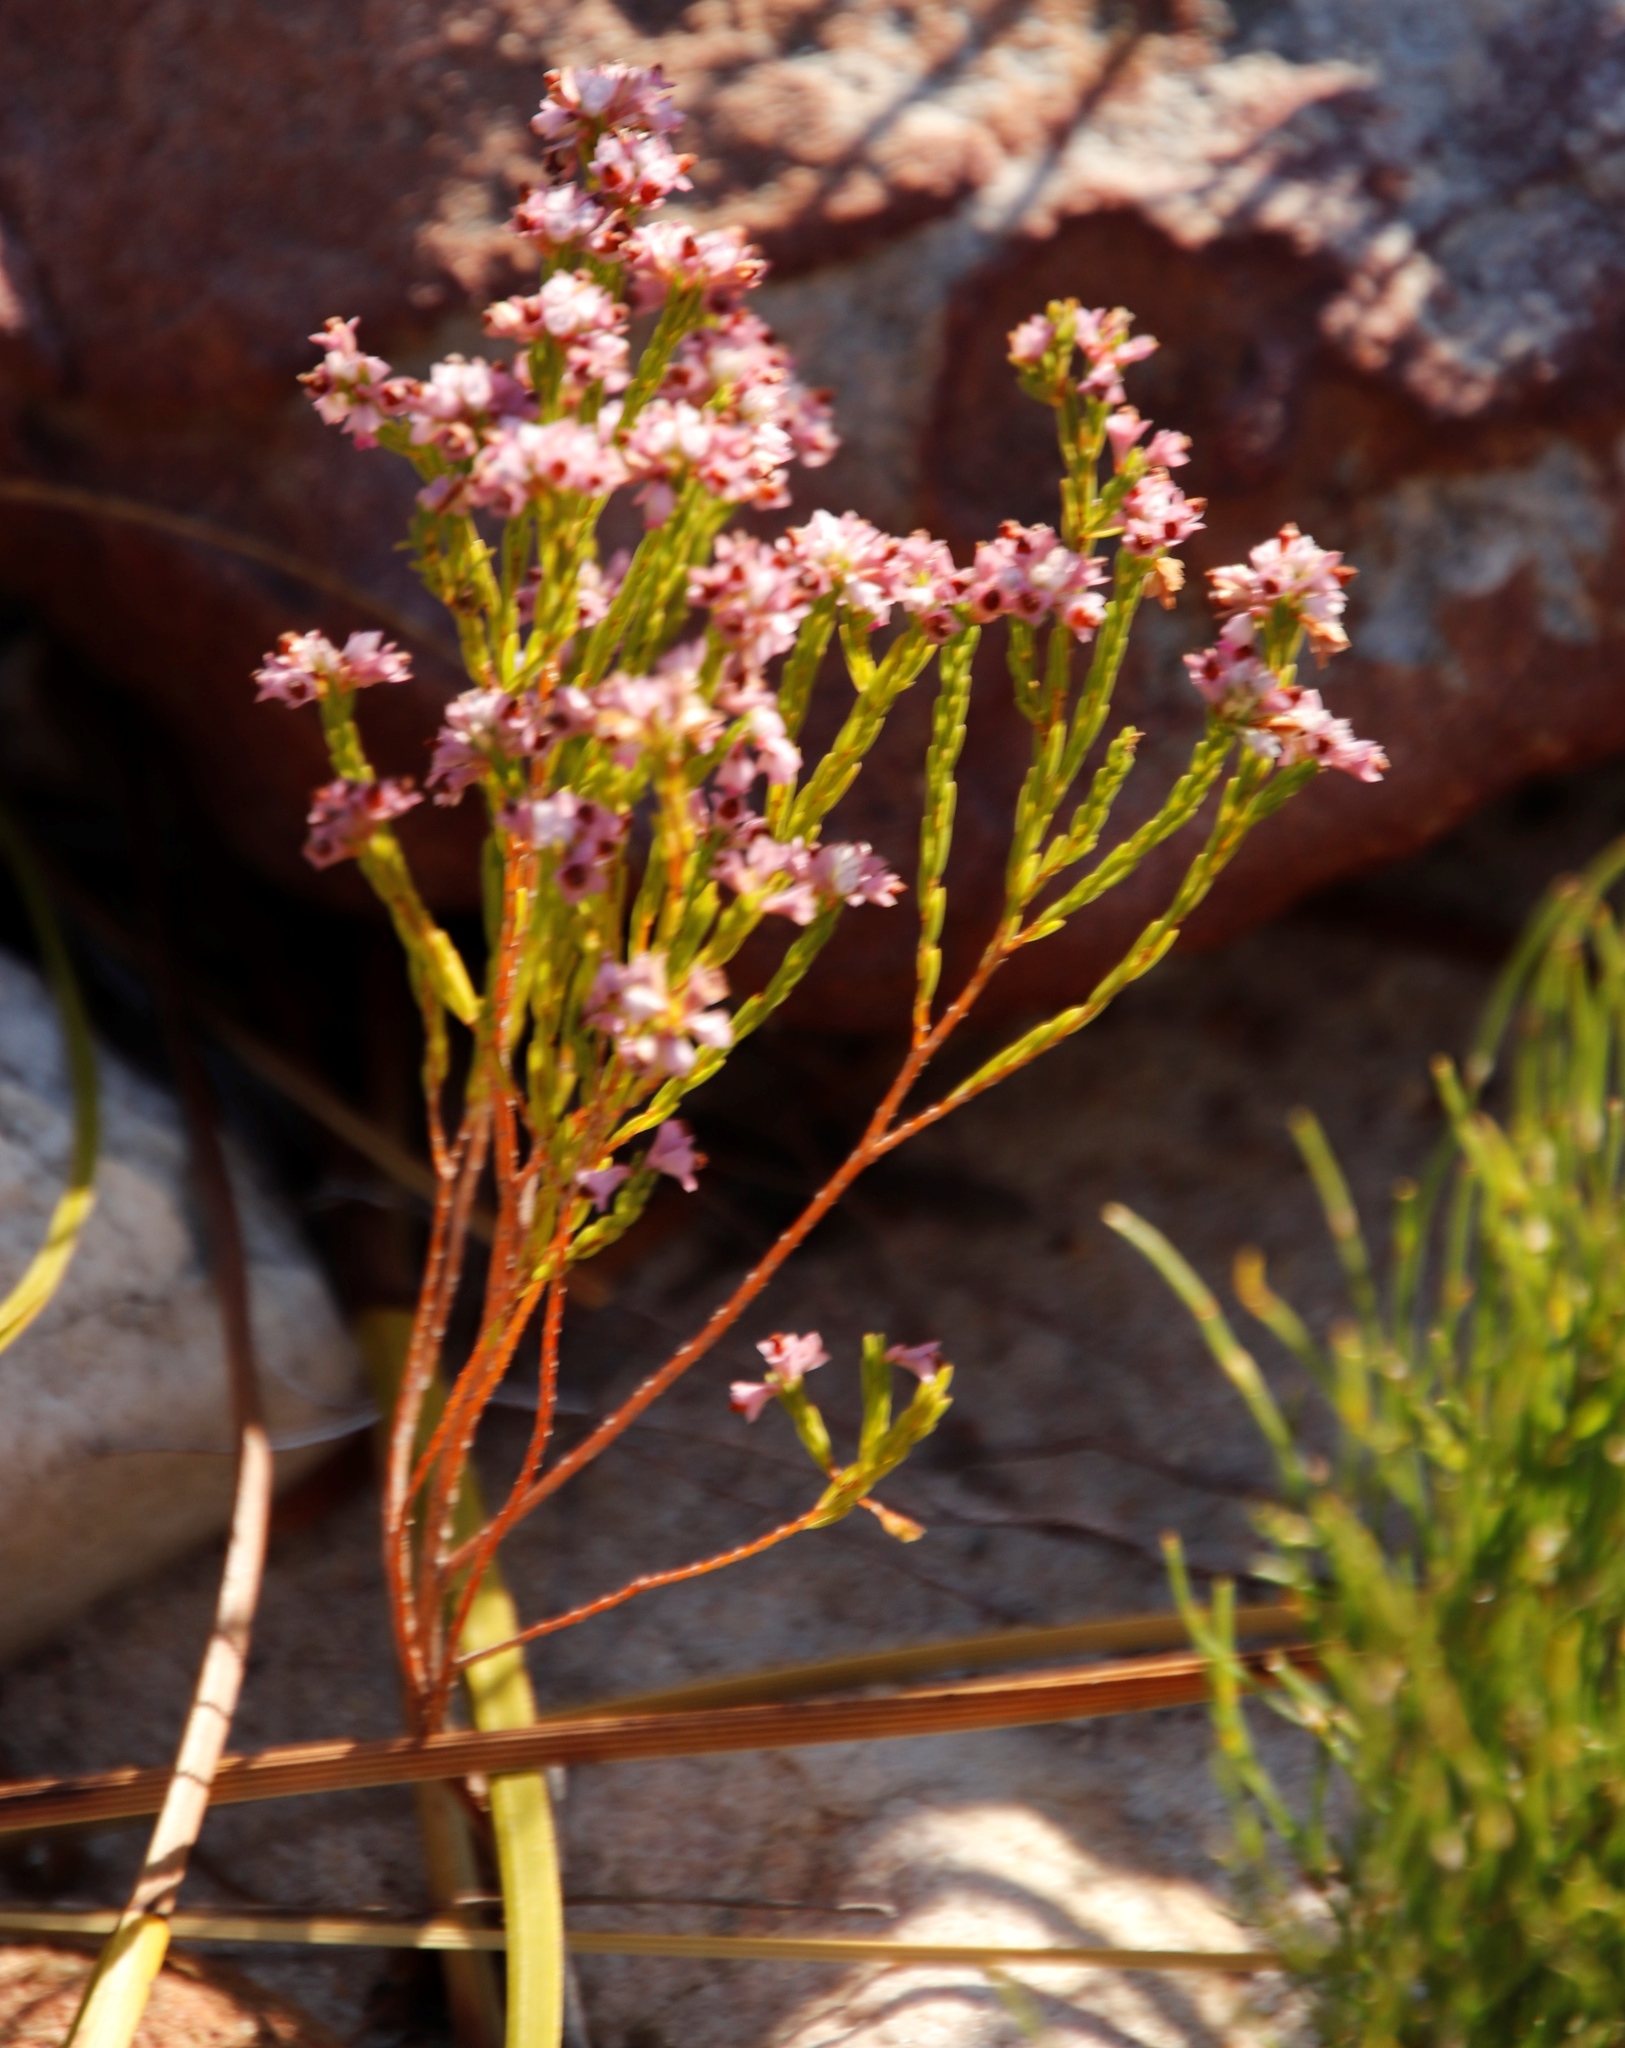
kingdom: Plantae
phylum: Tracheophyta
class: Magnoliopsida
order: Ericales
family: Ericaceae
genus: Erica
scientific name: Erica corifolia
